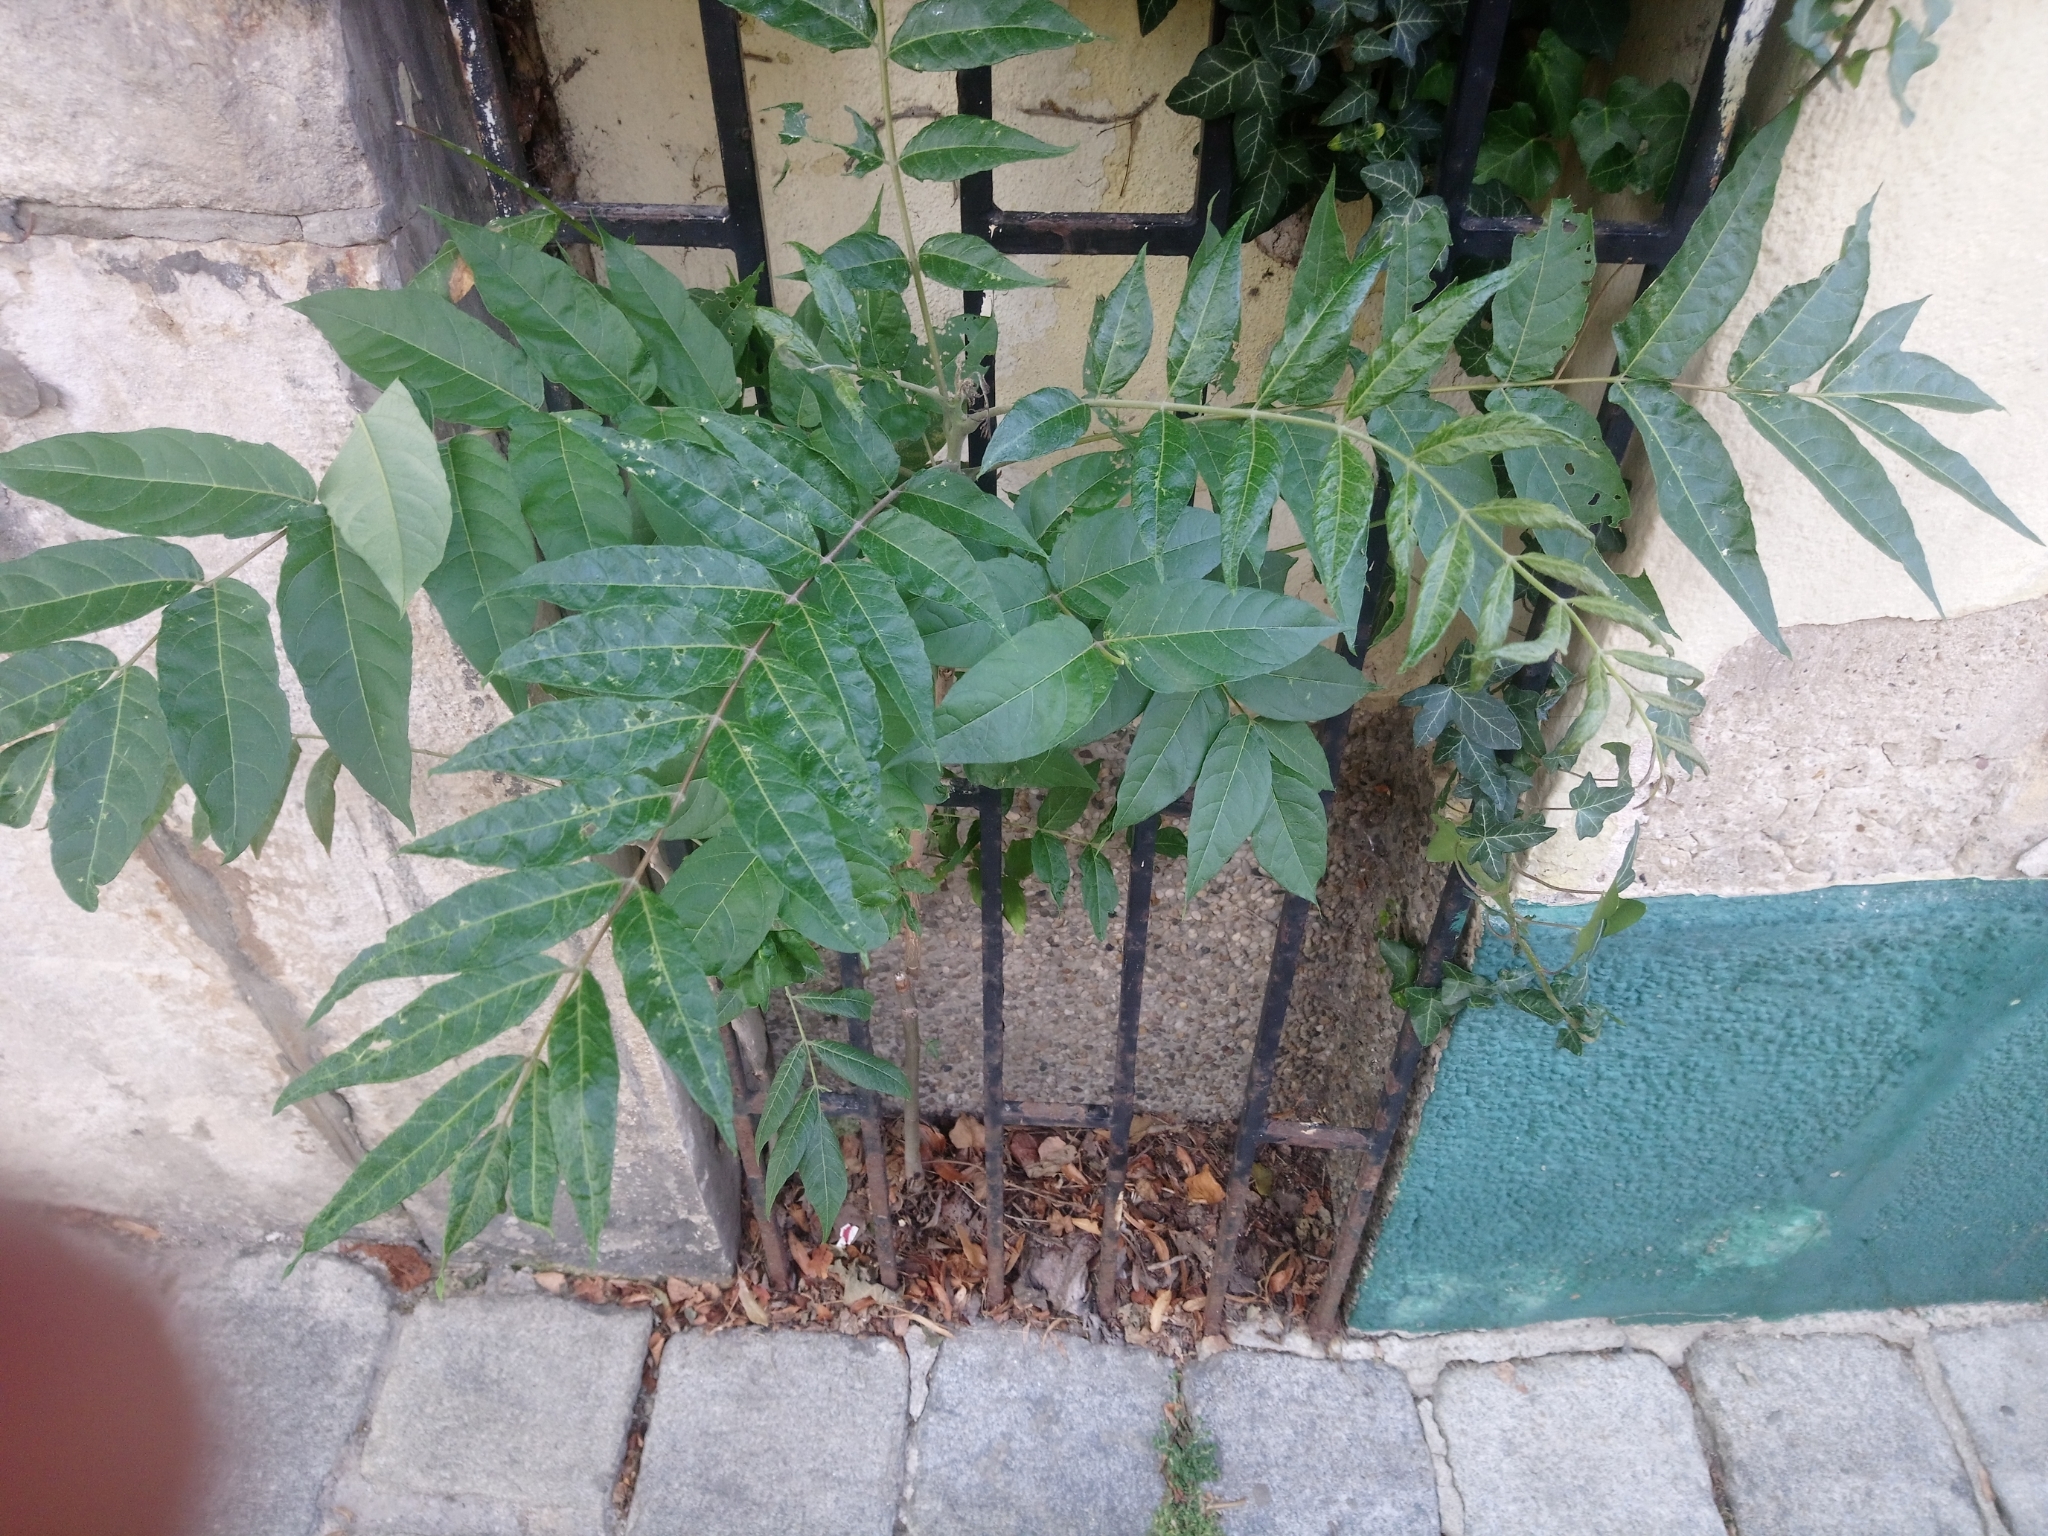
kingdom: Plantae
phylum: Tracheophyta
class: Magnoliopsida
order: Sapindales
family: Simaroubaceae
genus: Ailanthus
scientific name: Ailanthus altissima
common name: Tree-of-heaven
